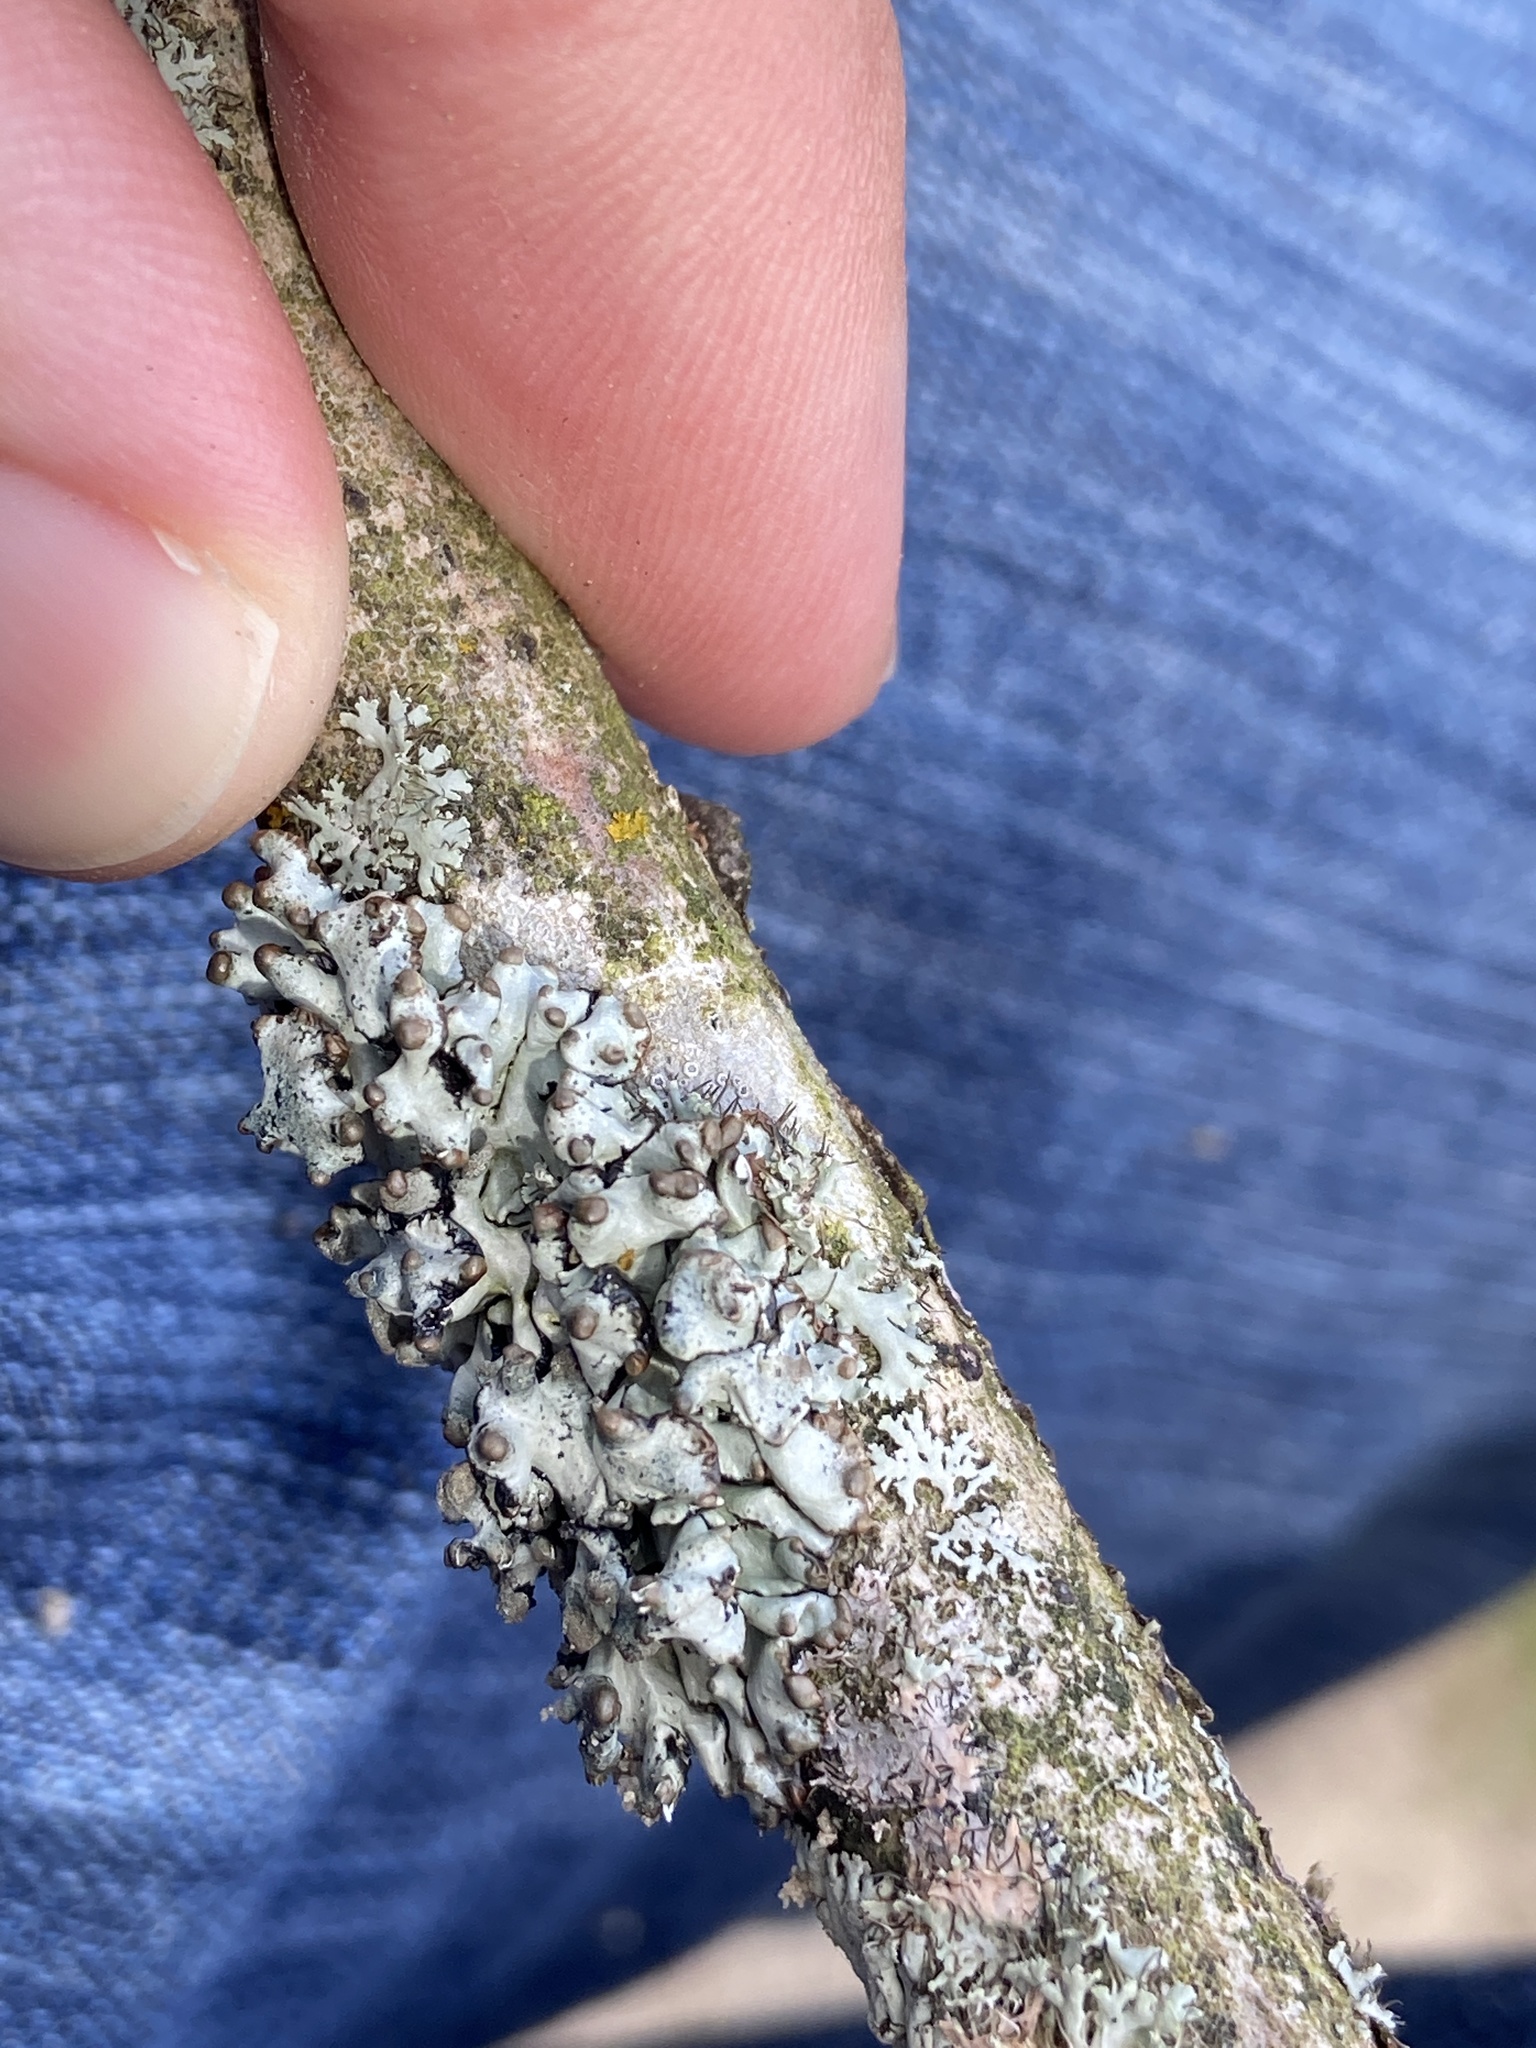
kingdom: Fungi
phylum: Ascomycota
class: Lecanoromycetes
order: Lecanorales
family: Parmeliaceae
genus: Hypogymnia
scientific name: Hypogymnia tubulosa
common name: Powder-headed tube lichen
